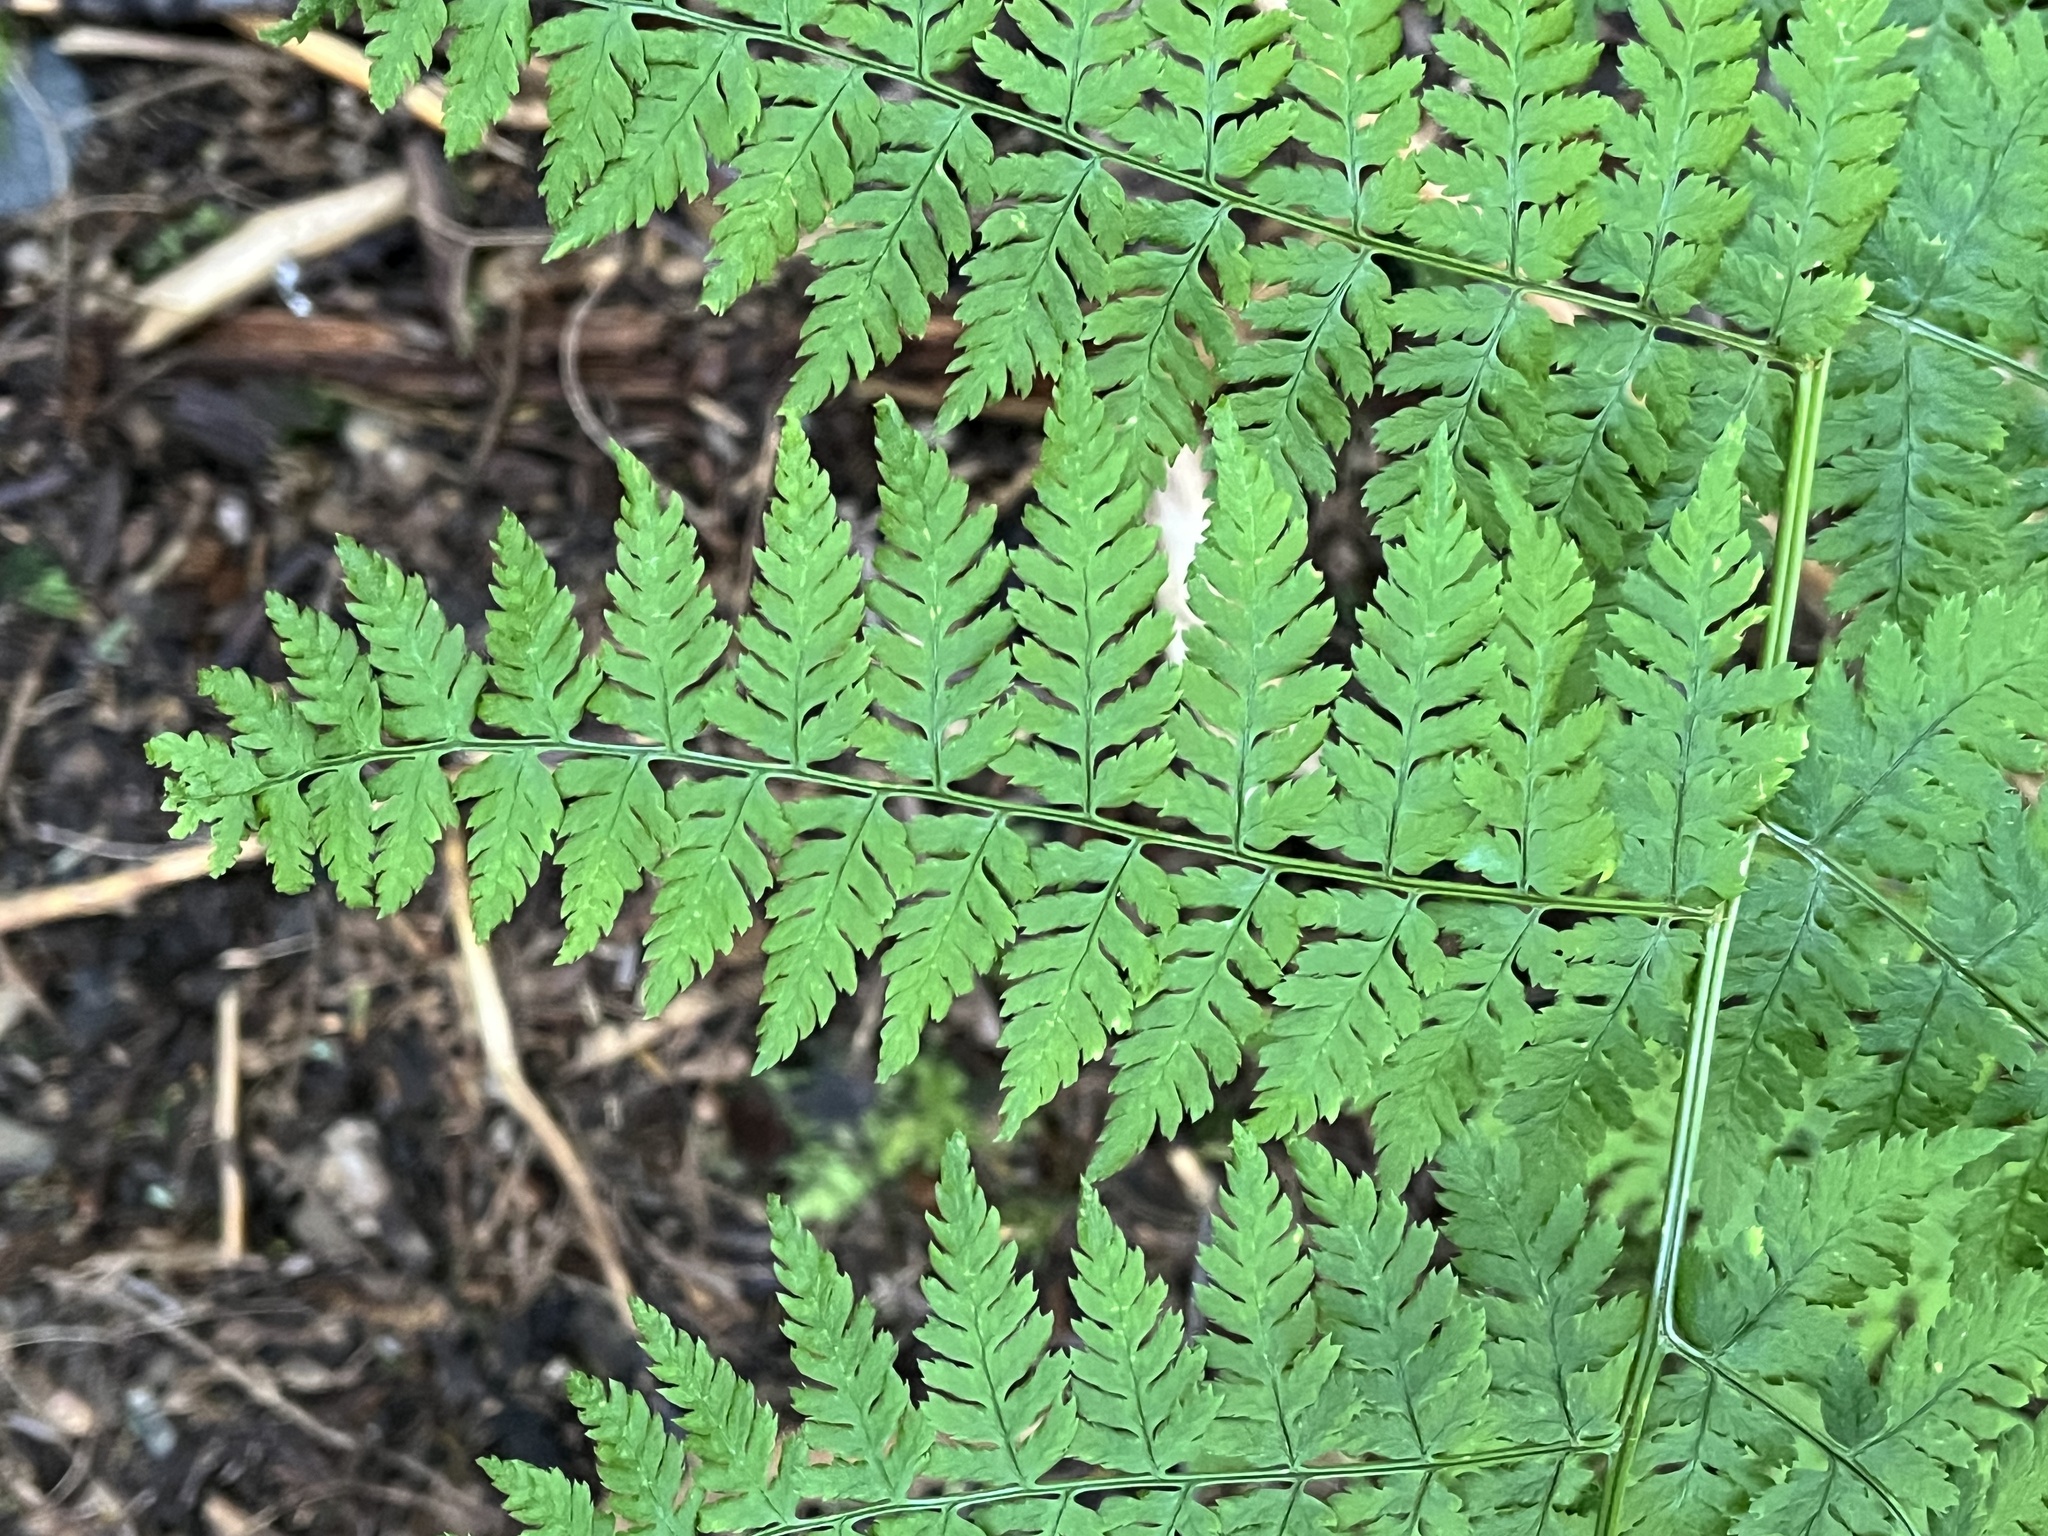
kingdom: Plantae
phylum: Tracheophyta
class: Polypodiopsida
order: Polypodiales
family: Dryopteridaceae
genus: Dryopteris
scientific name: Dryopteris expansa
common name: Northern buckler fern
